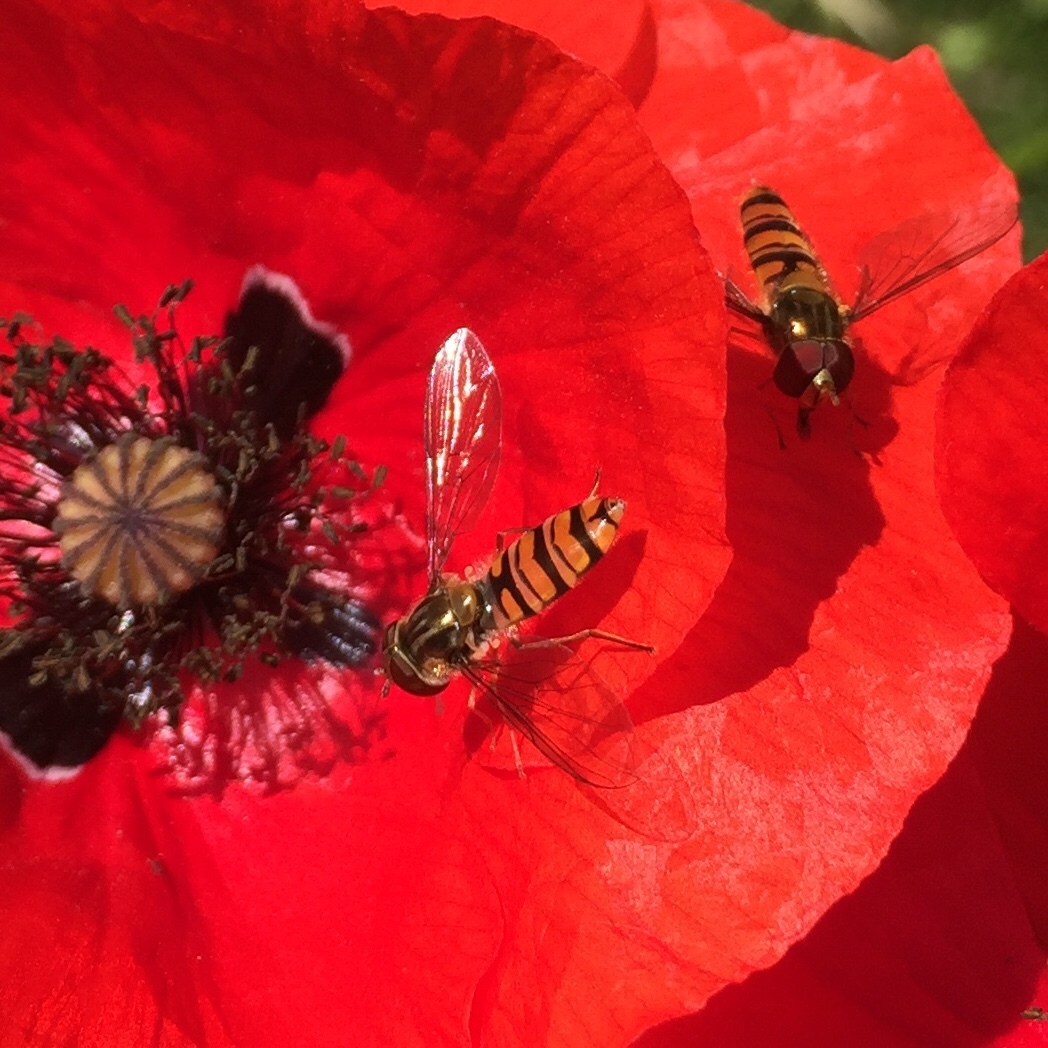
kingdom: Animalia
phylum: Arthropoda
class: Insecta
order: Diptera
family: Syrphidae
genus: Episyrphus
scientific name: Episyrphus balteatus
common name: Marmalade hoverfly
